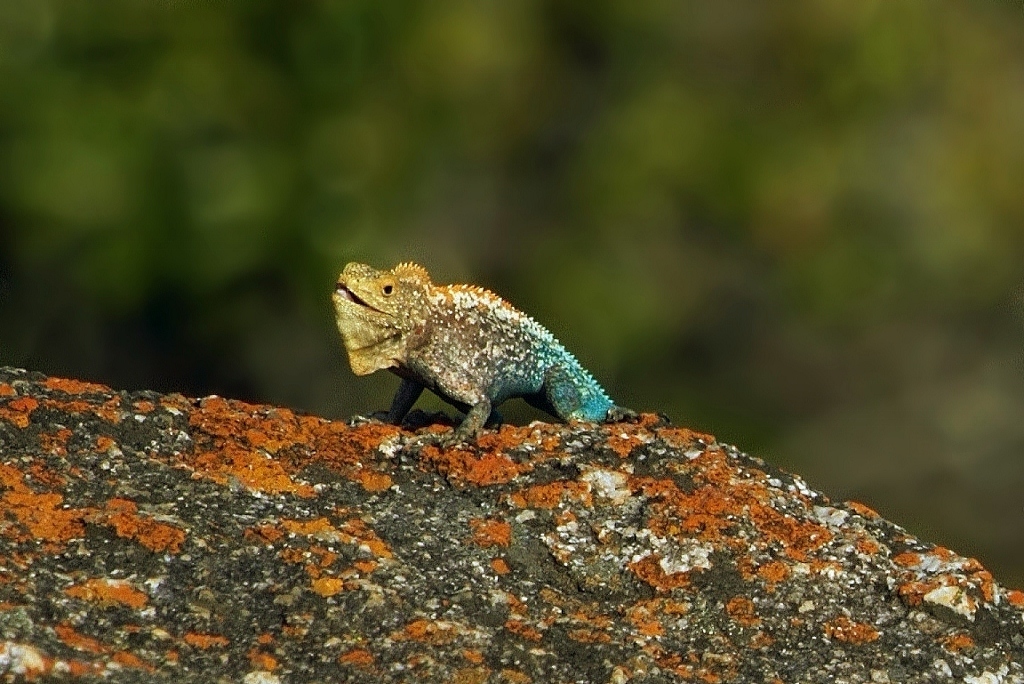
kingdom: Animalia
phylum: Chordata
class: Squamata
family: Agamidae
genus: Agama
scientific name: Agama kirkii
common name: Kirk's rock agama
